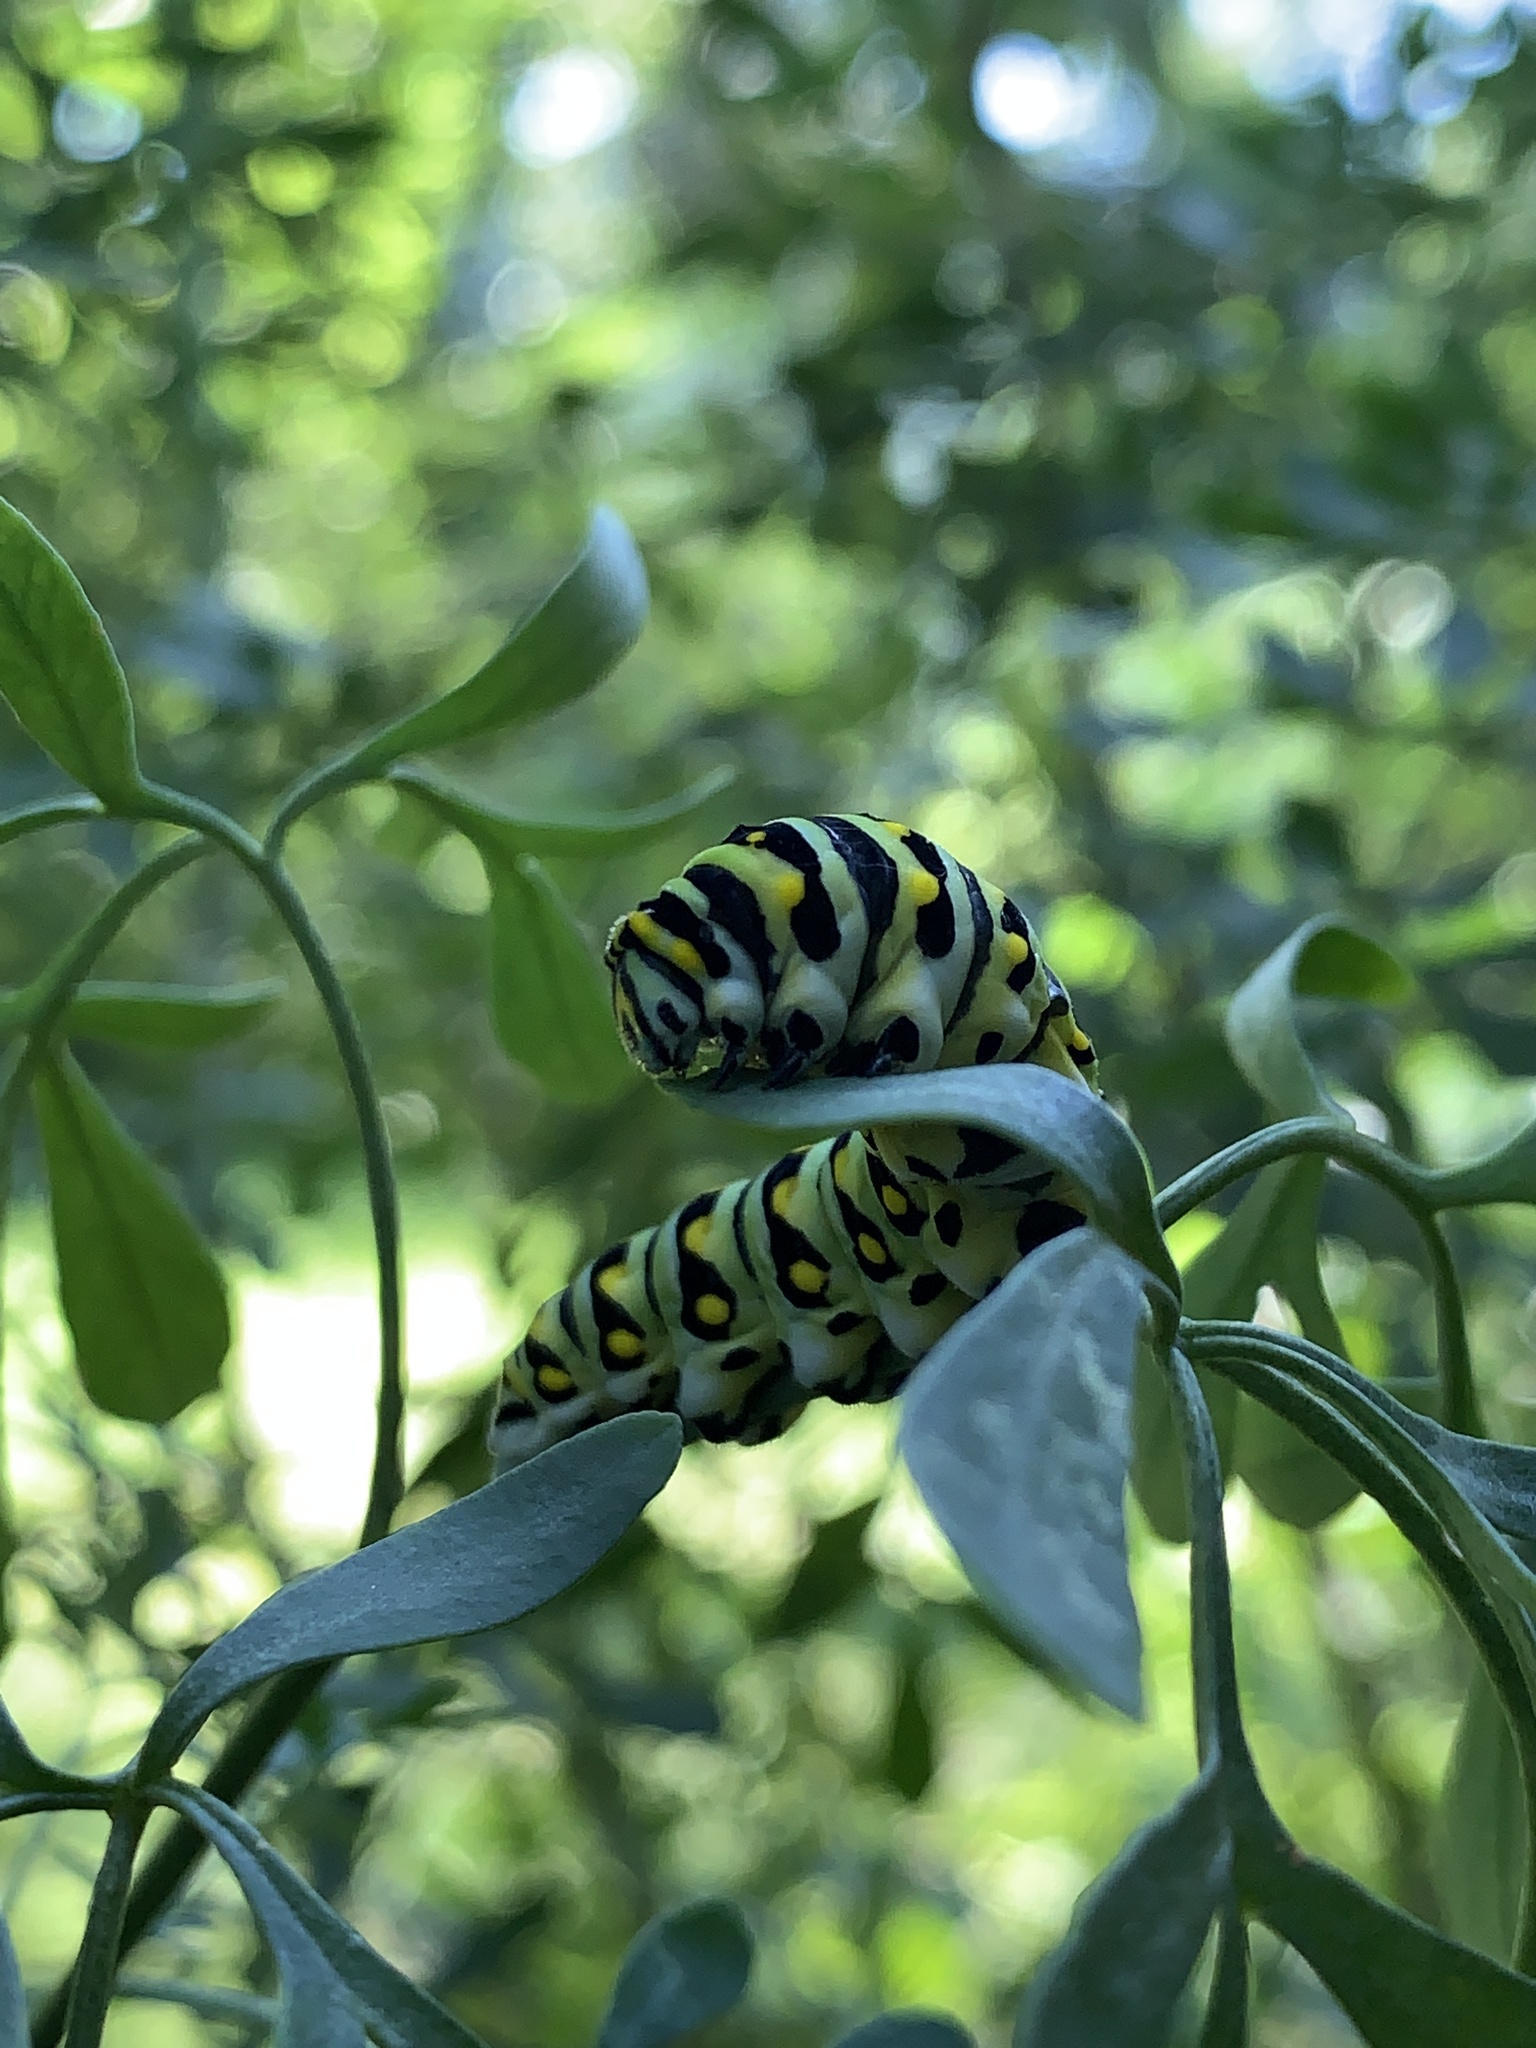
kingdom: Animalia
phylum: Arthropoda
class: Insecta
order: Lepidoptera
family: Papilionidae
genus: Papilio
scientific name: Papilio polyxenes
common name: Black swallowtail
